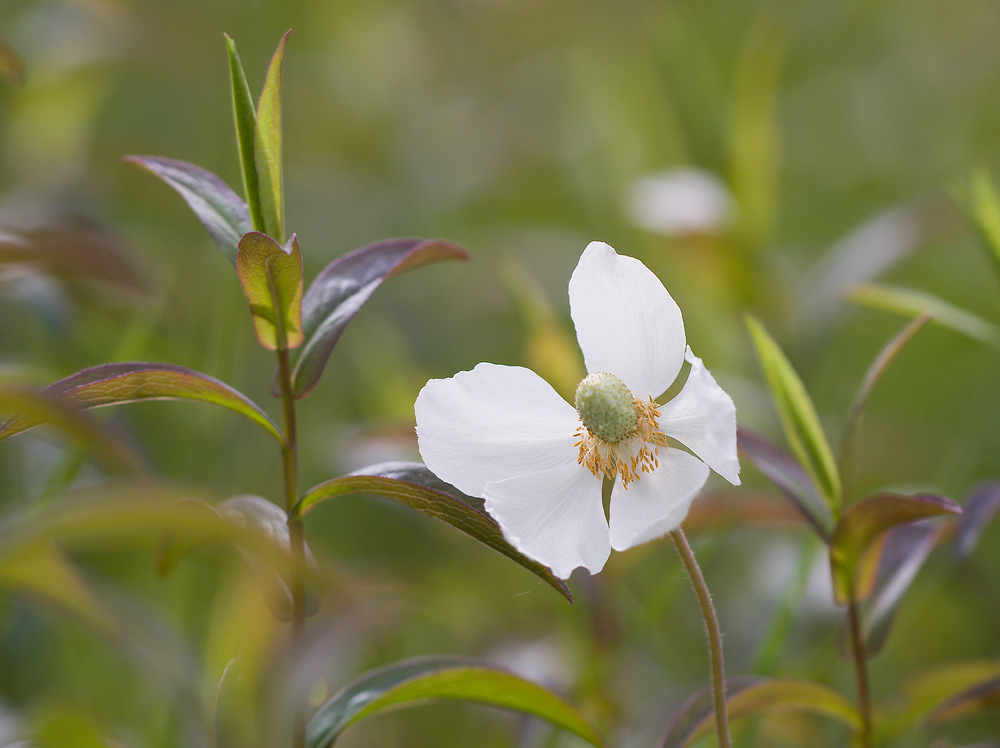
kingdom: Plantae
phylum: Tracheophyta
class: Magnoliopsida
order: Ranunculales
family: Ranunculaceae
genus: Anemone
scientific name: Anemone sylvestris
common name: Snowdrop anemone
